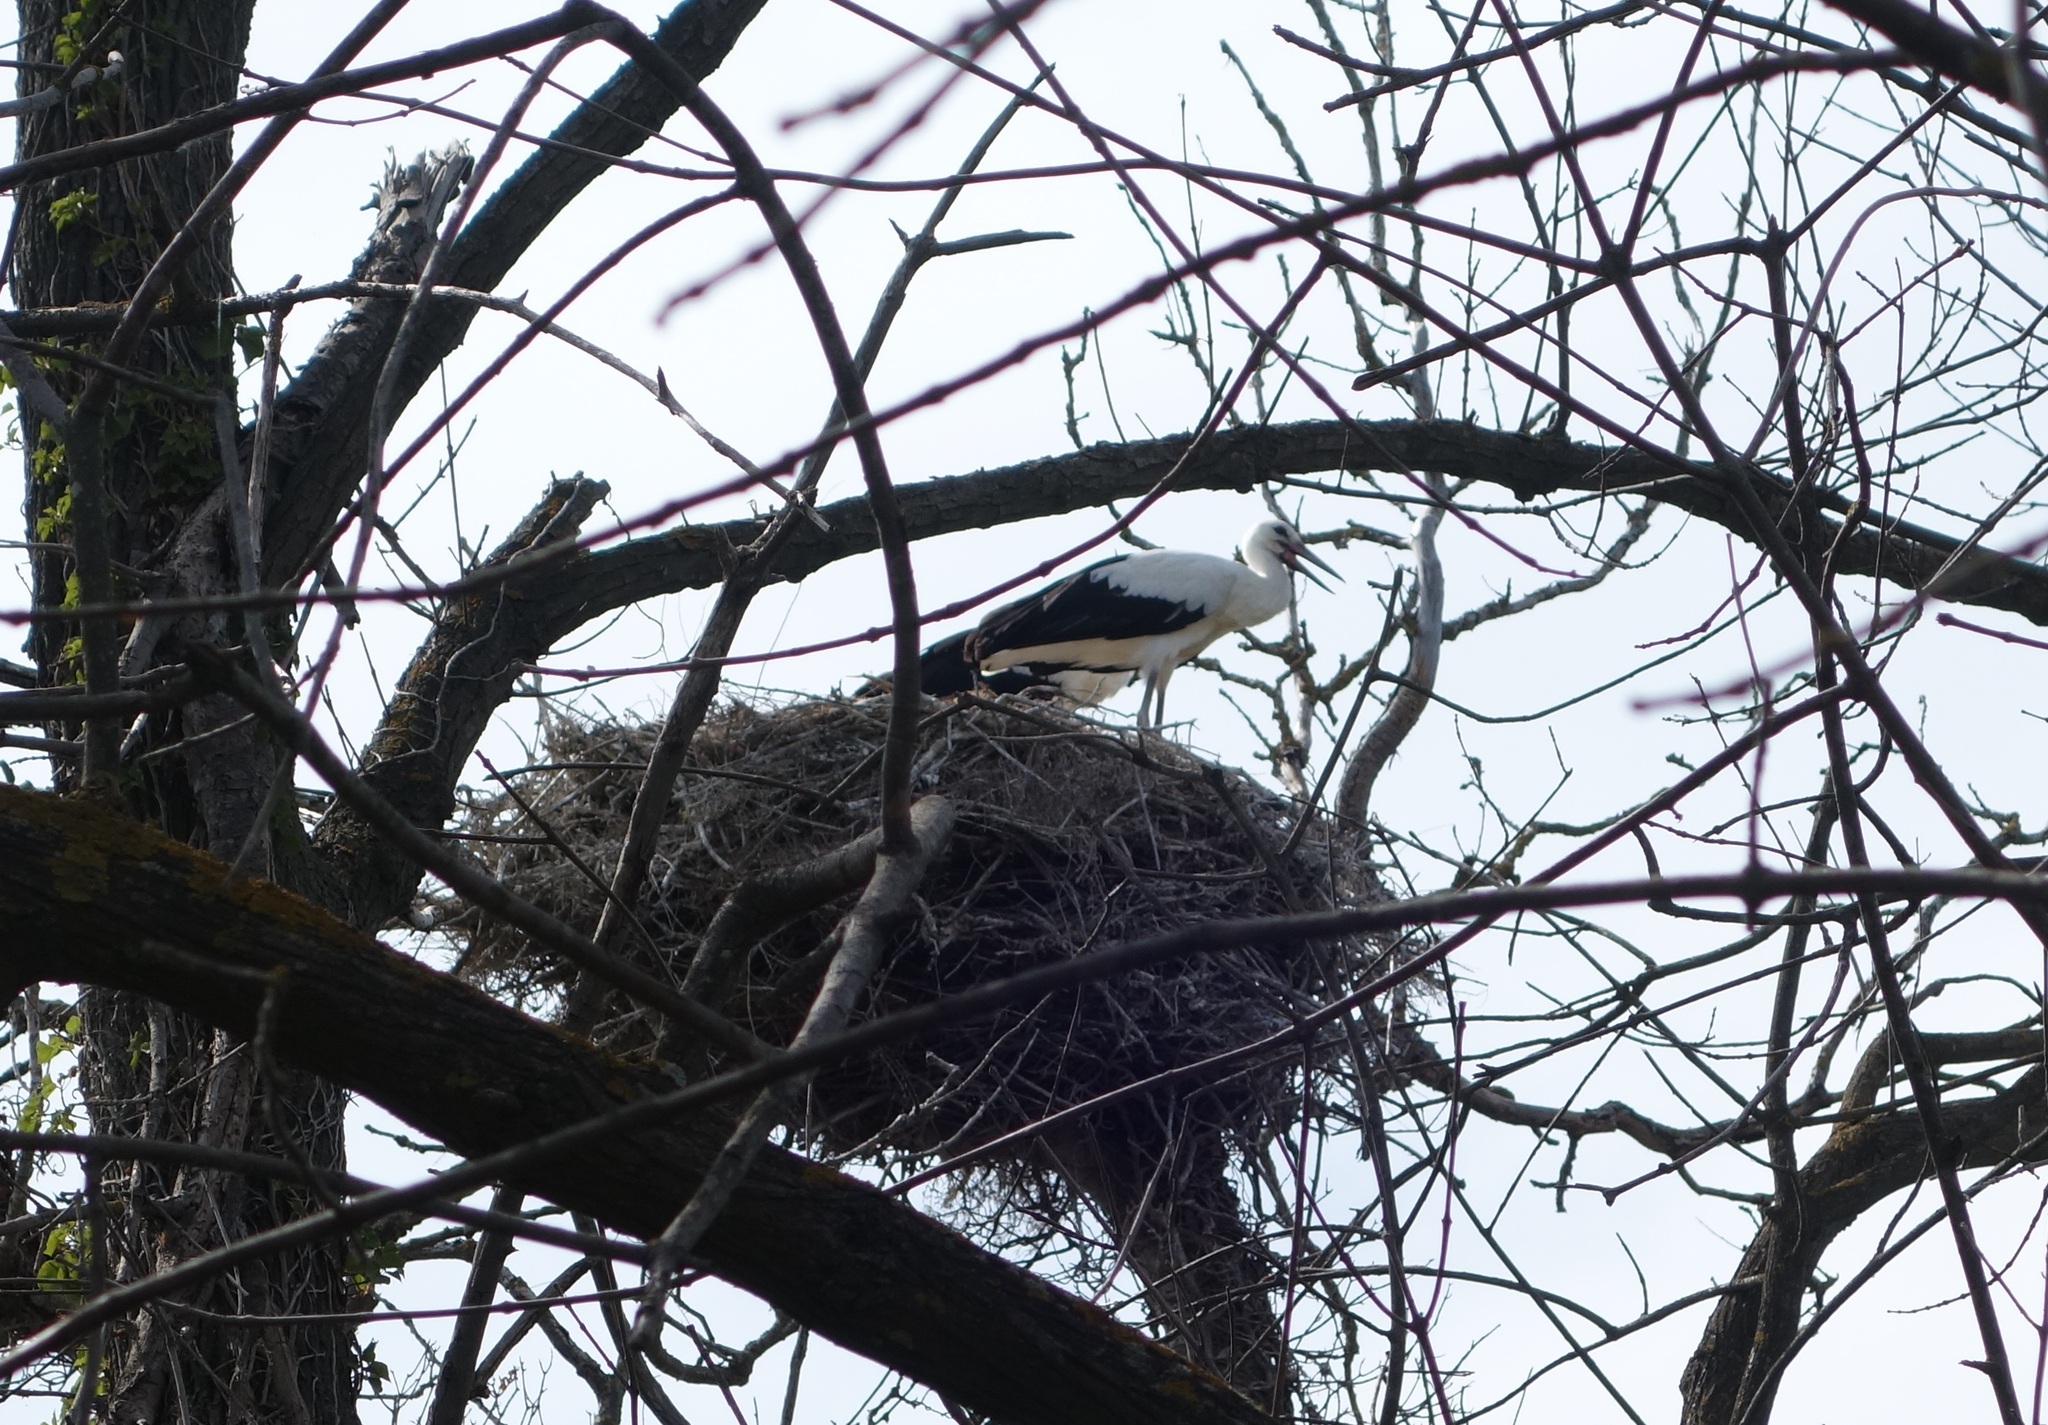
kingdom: Animalia
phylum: Chordata
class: Aves
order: Ciconiiformes
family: Ciconiidae
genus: Ciconia
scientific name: Ciconia ciconia
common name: White stork
